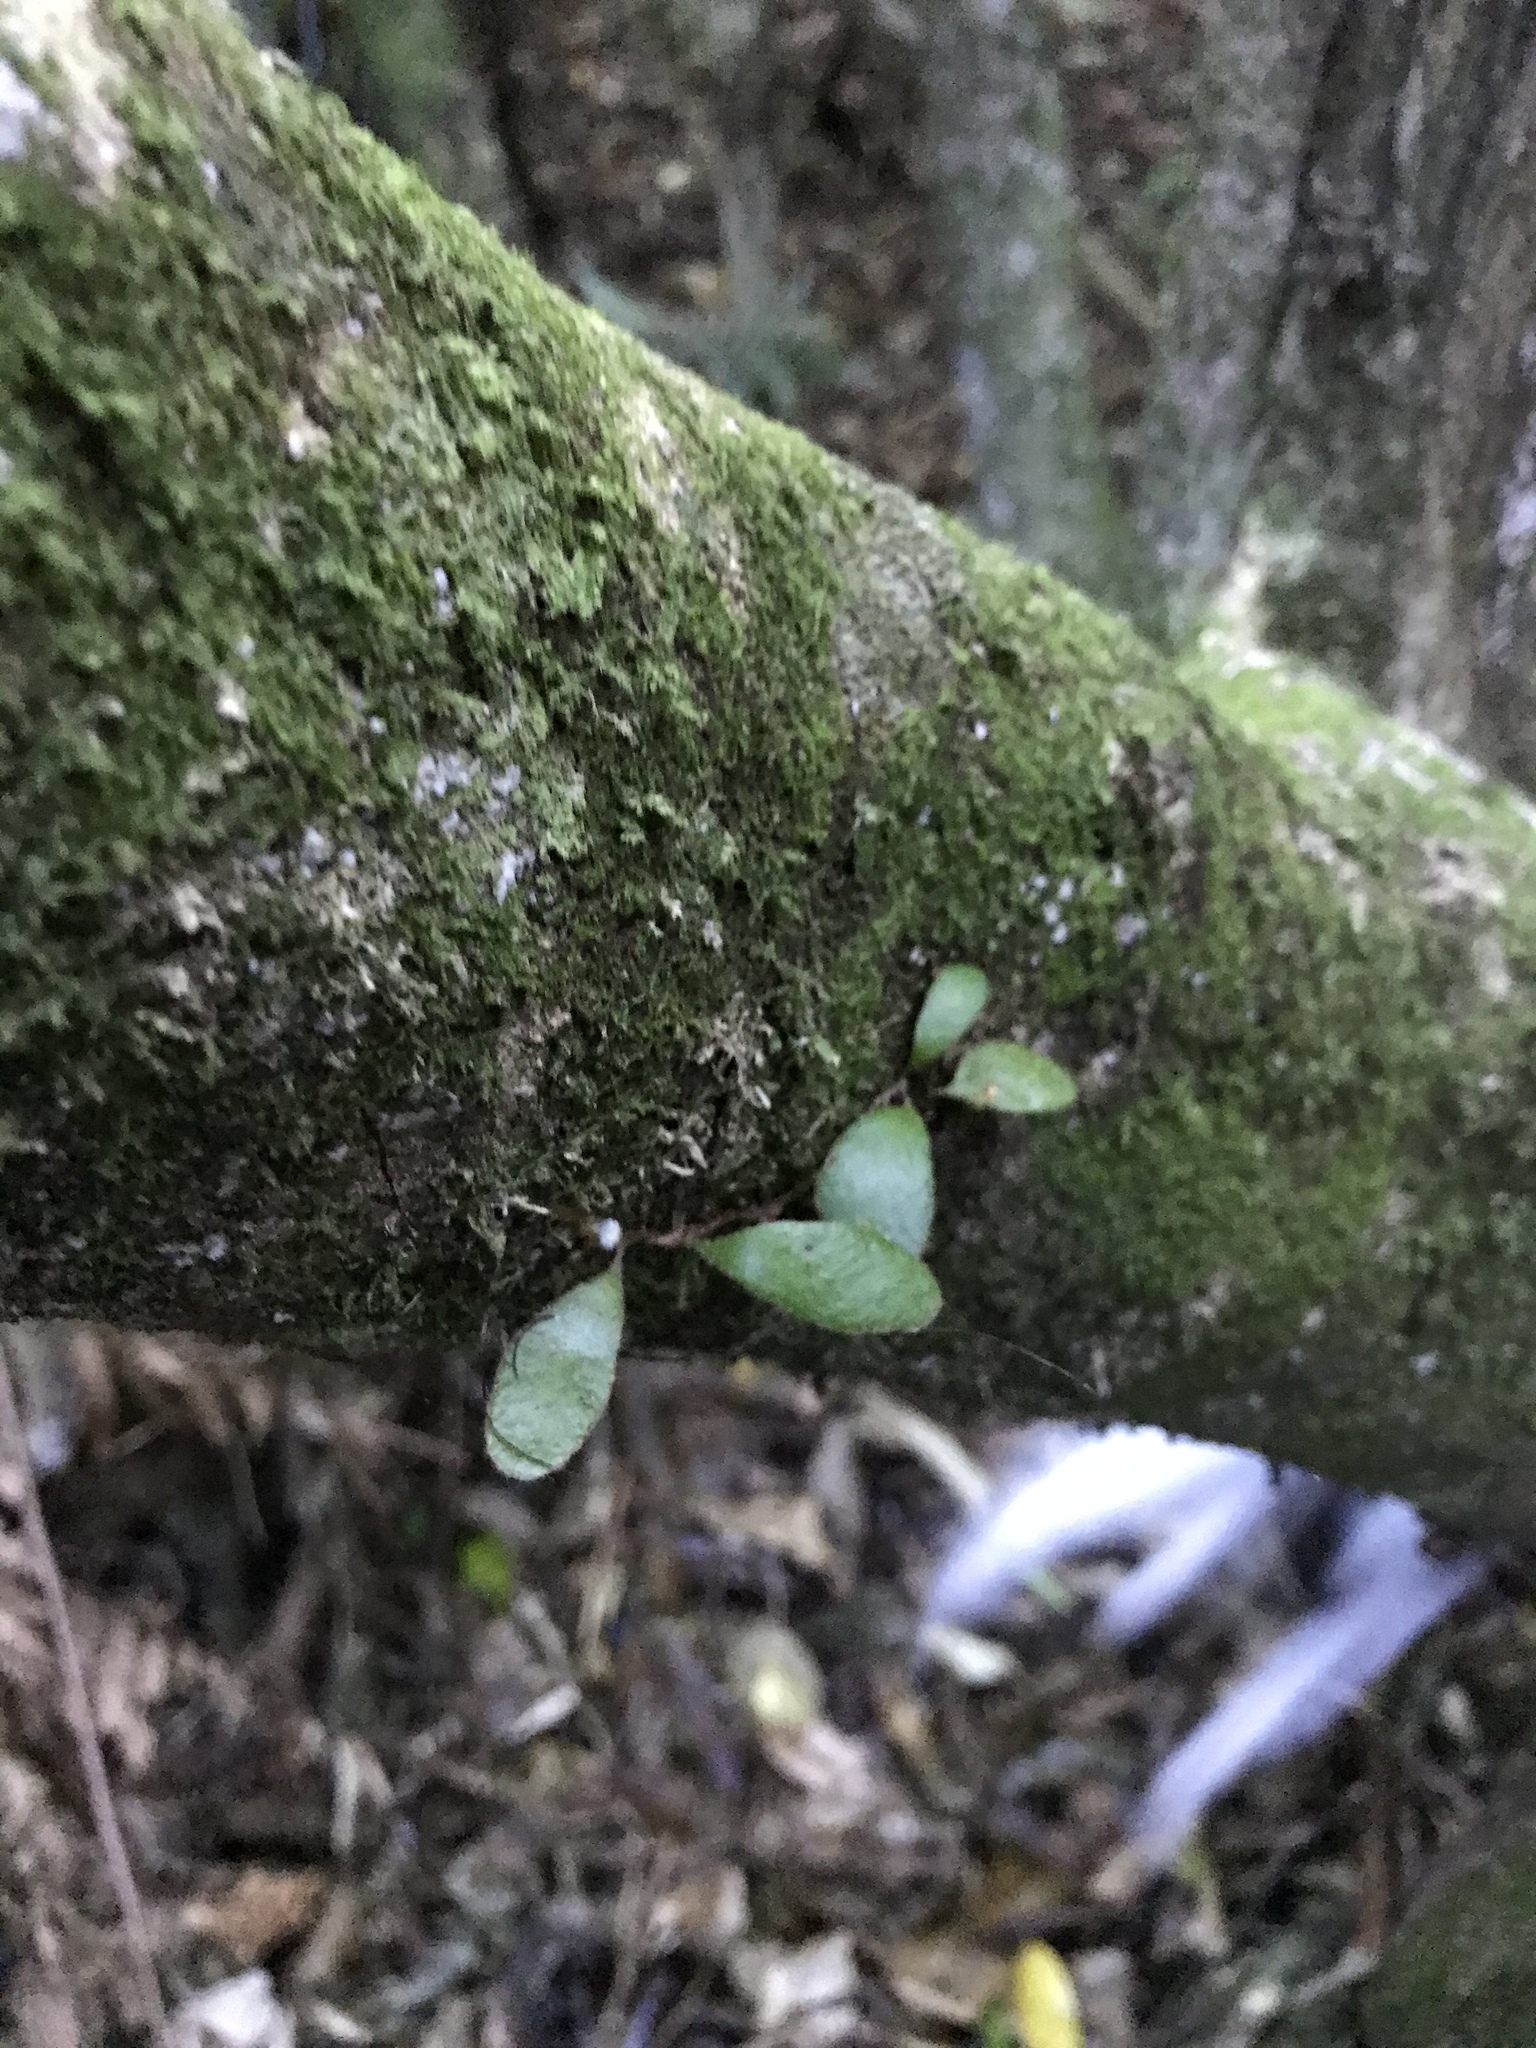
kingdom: Plantae
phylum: Tracheophyta
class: Polypodiopsida
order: Polypodiales
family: Polypodiaceae
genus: Pyrrosia
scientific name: Pyrrosia eleagnifolia
